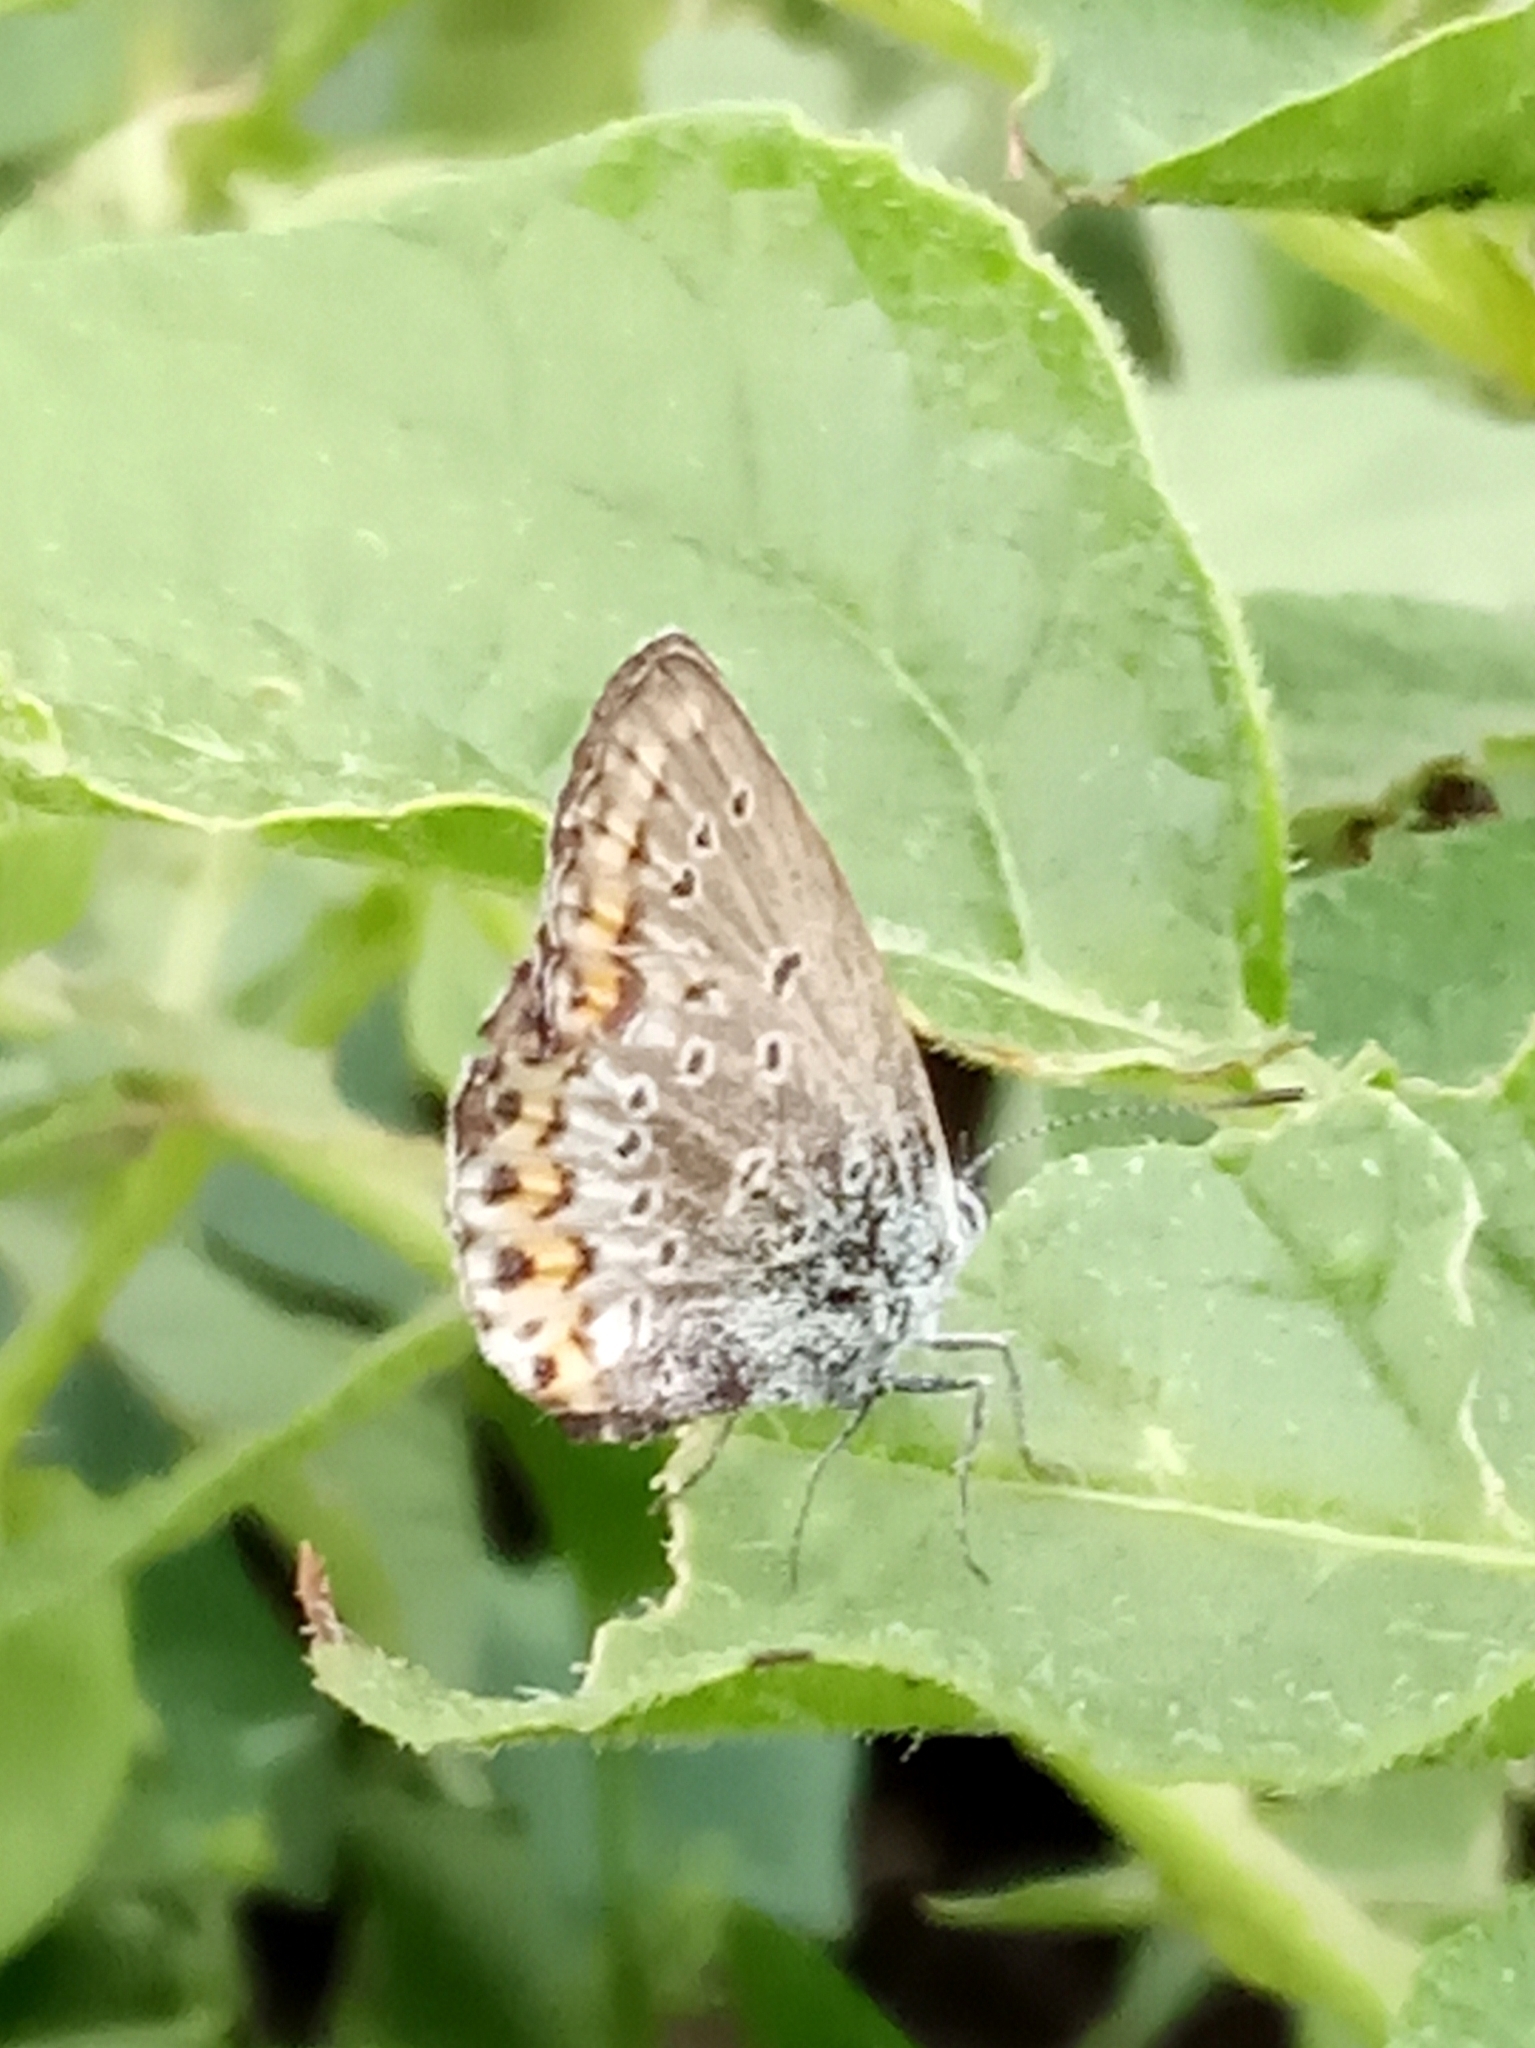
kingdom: Animalia
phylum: Arthropoda
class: Insecta
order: Lepidoptera
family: Lycaenidae
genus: Plebejus
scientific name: Plebejus
